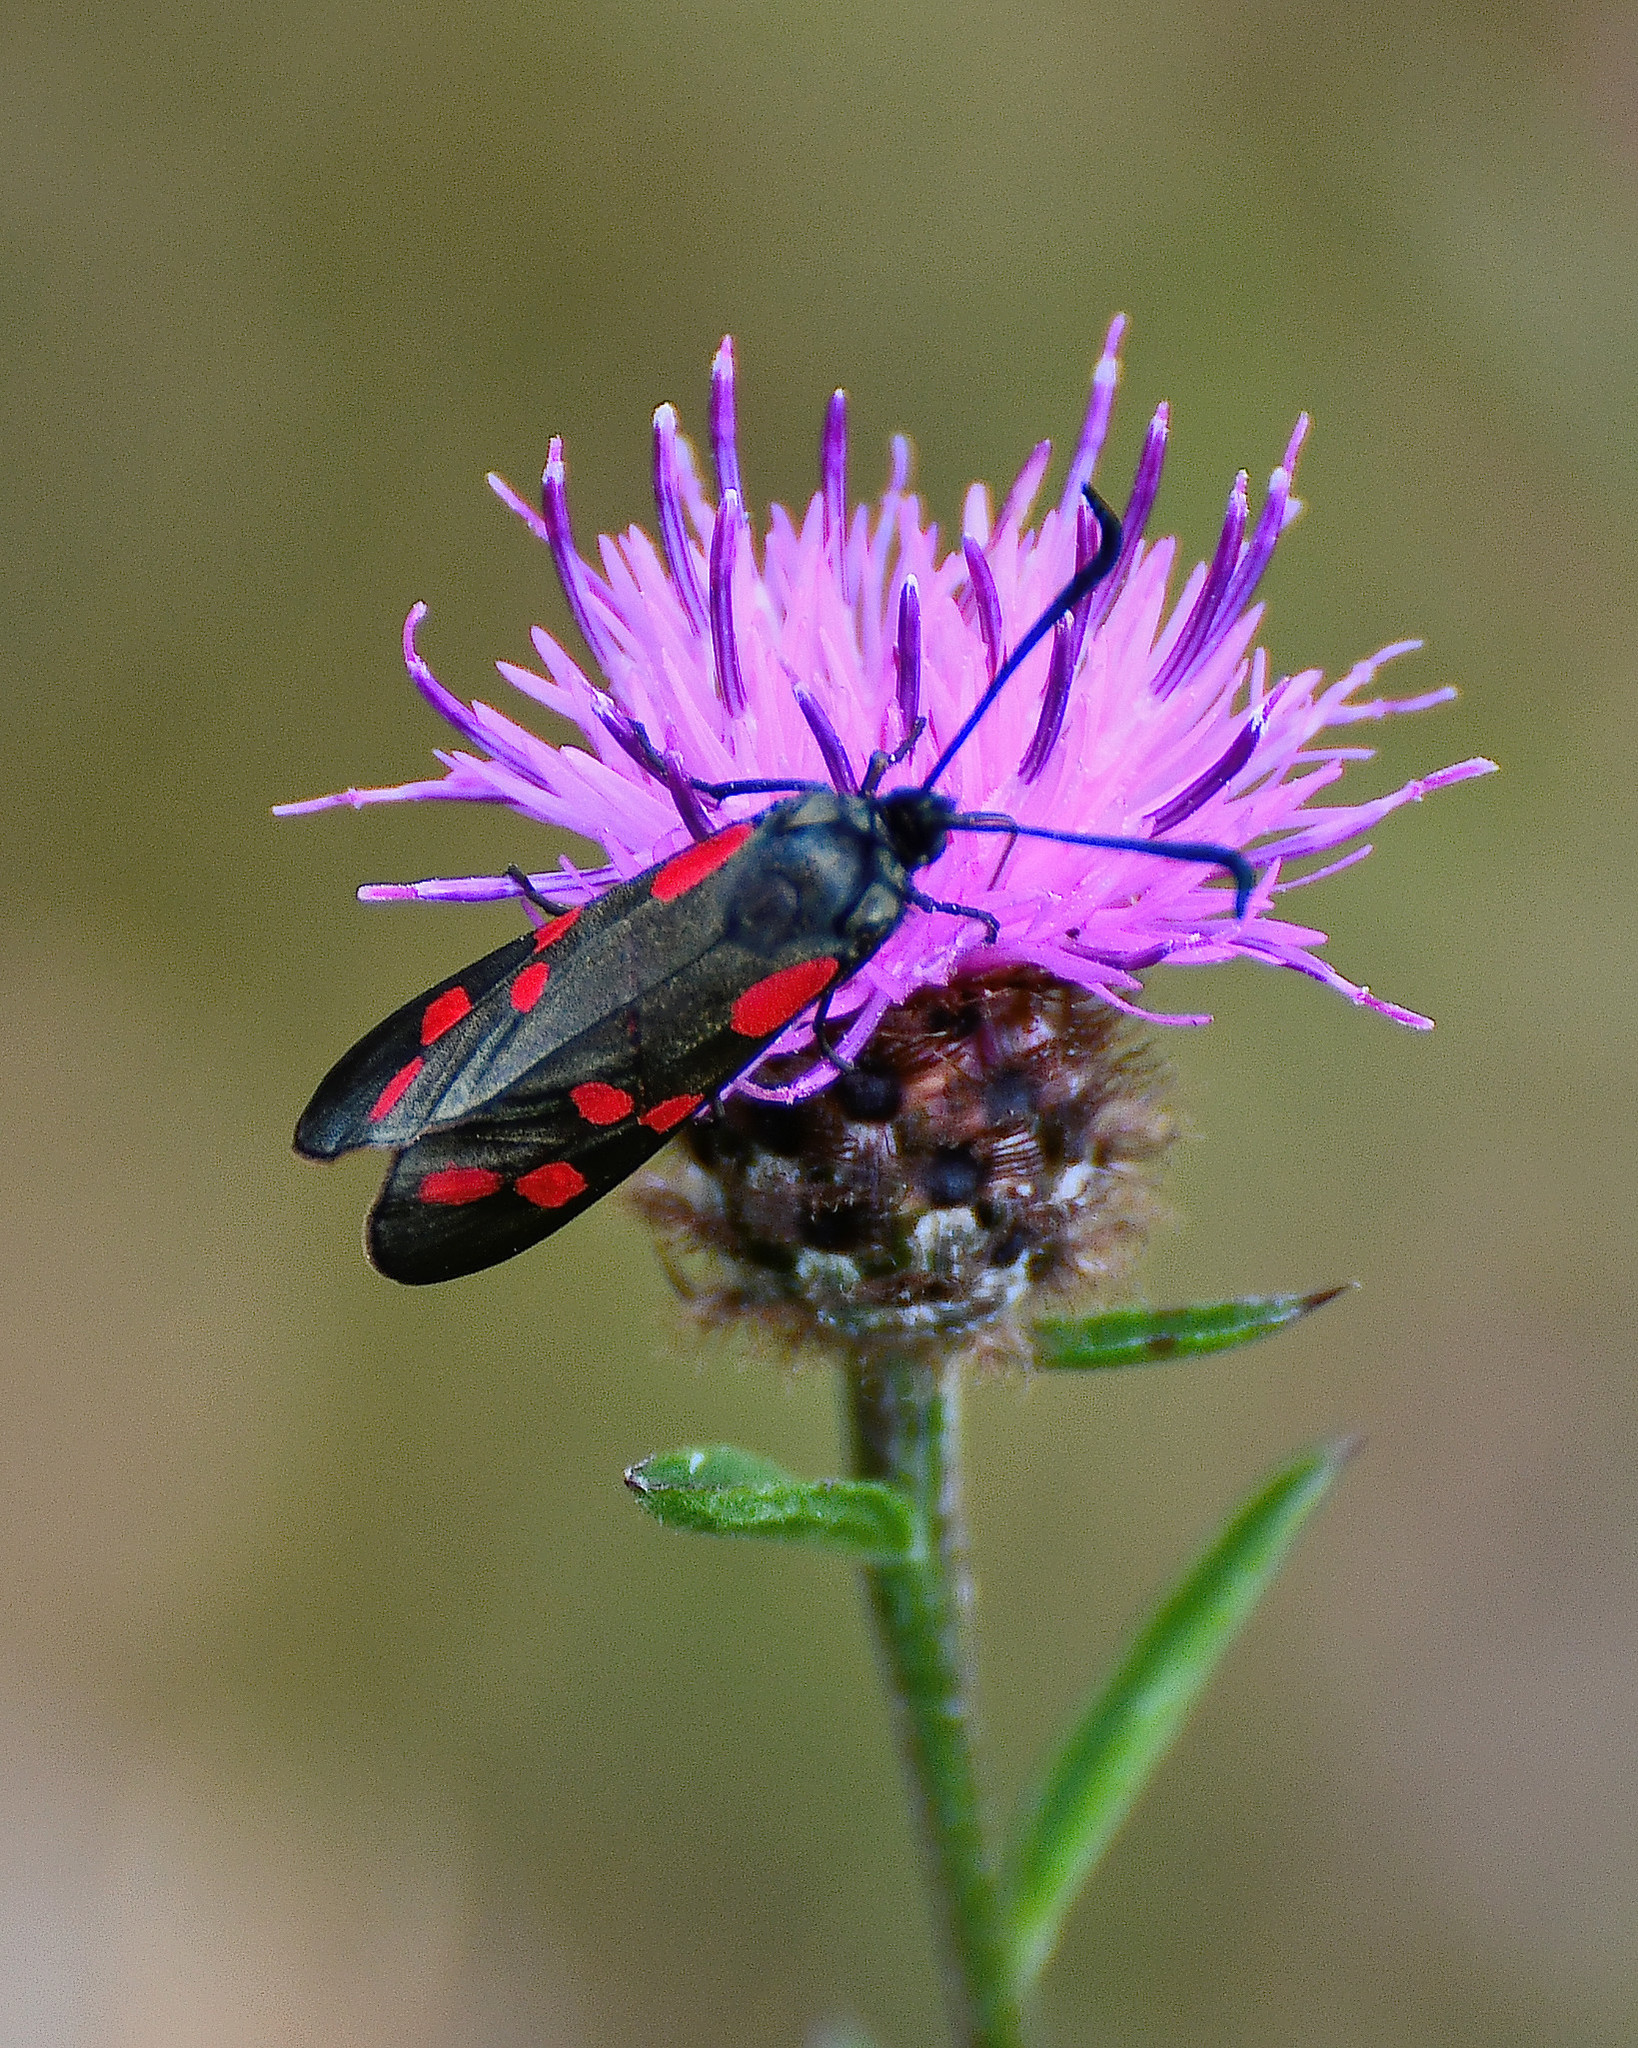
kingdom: Animalia
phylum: Arthropoda
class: Insecta
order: Lepidoptera
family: Zygaenidae
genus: Zygaena
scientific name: Zygaena filipendulae
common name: Six-spot burnet
